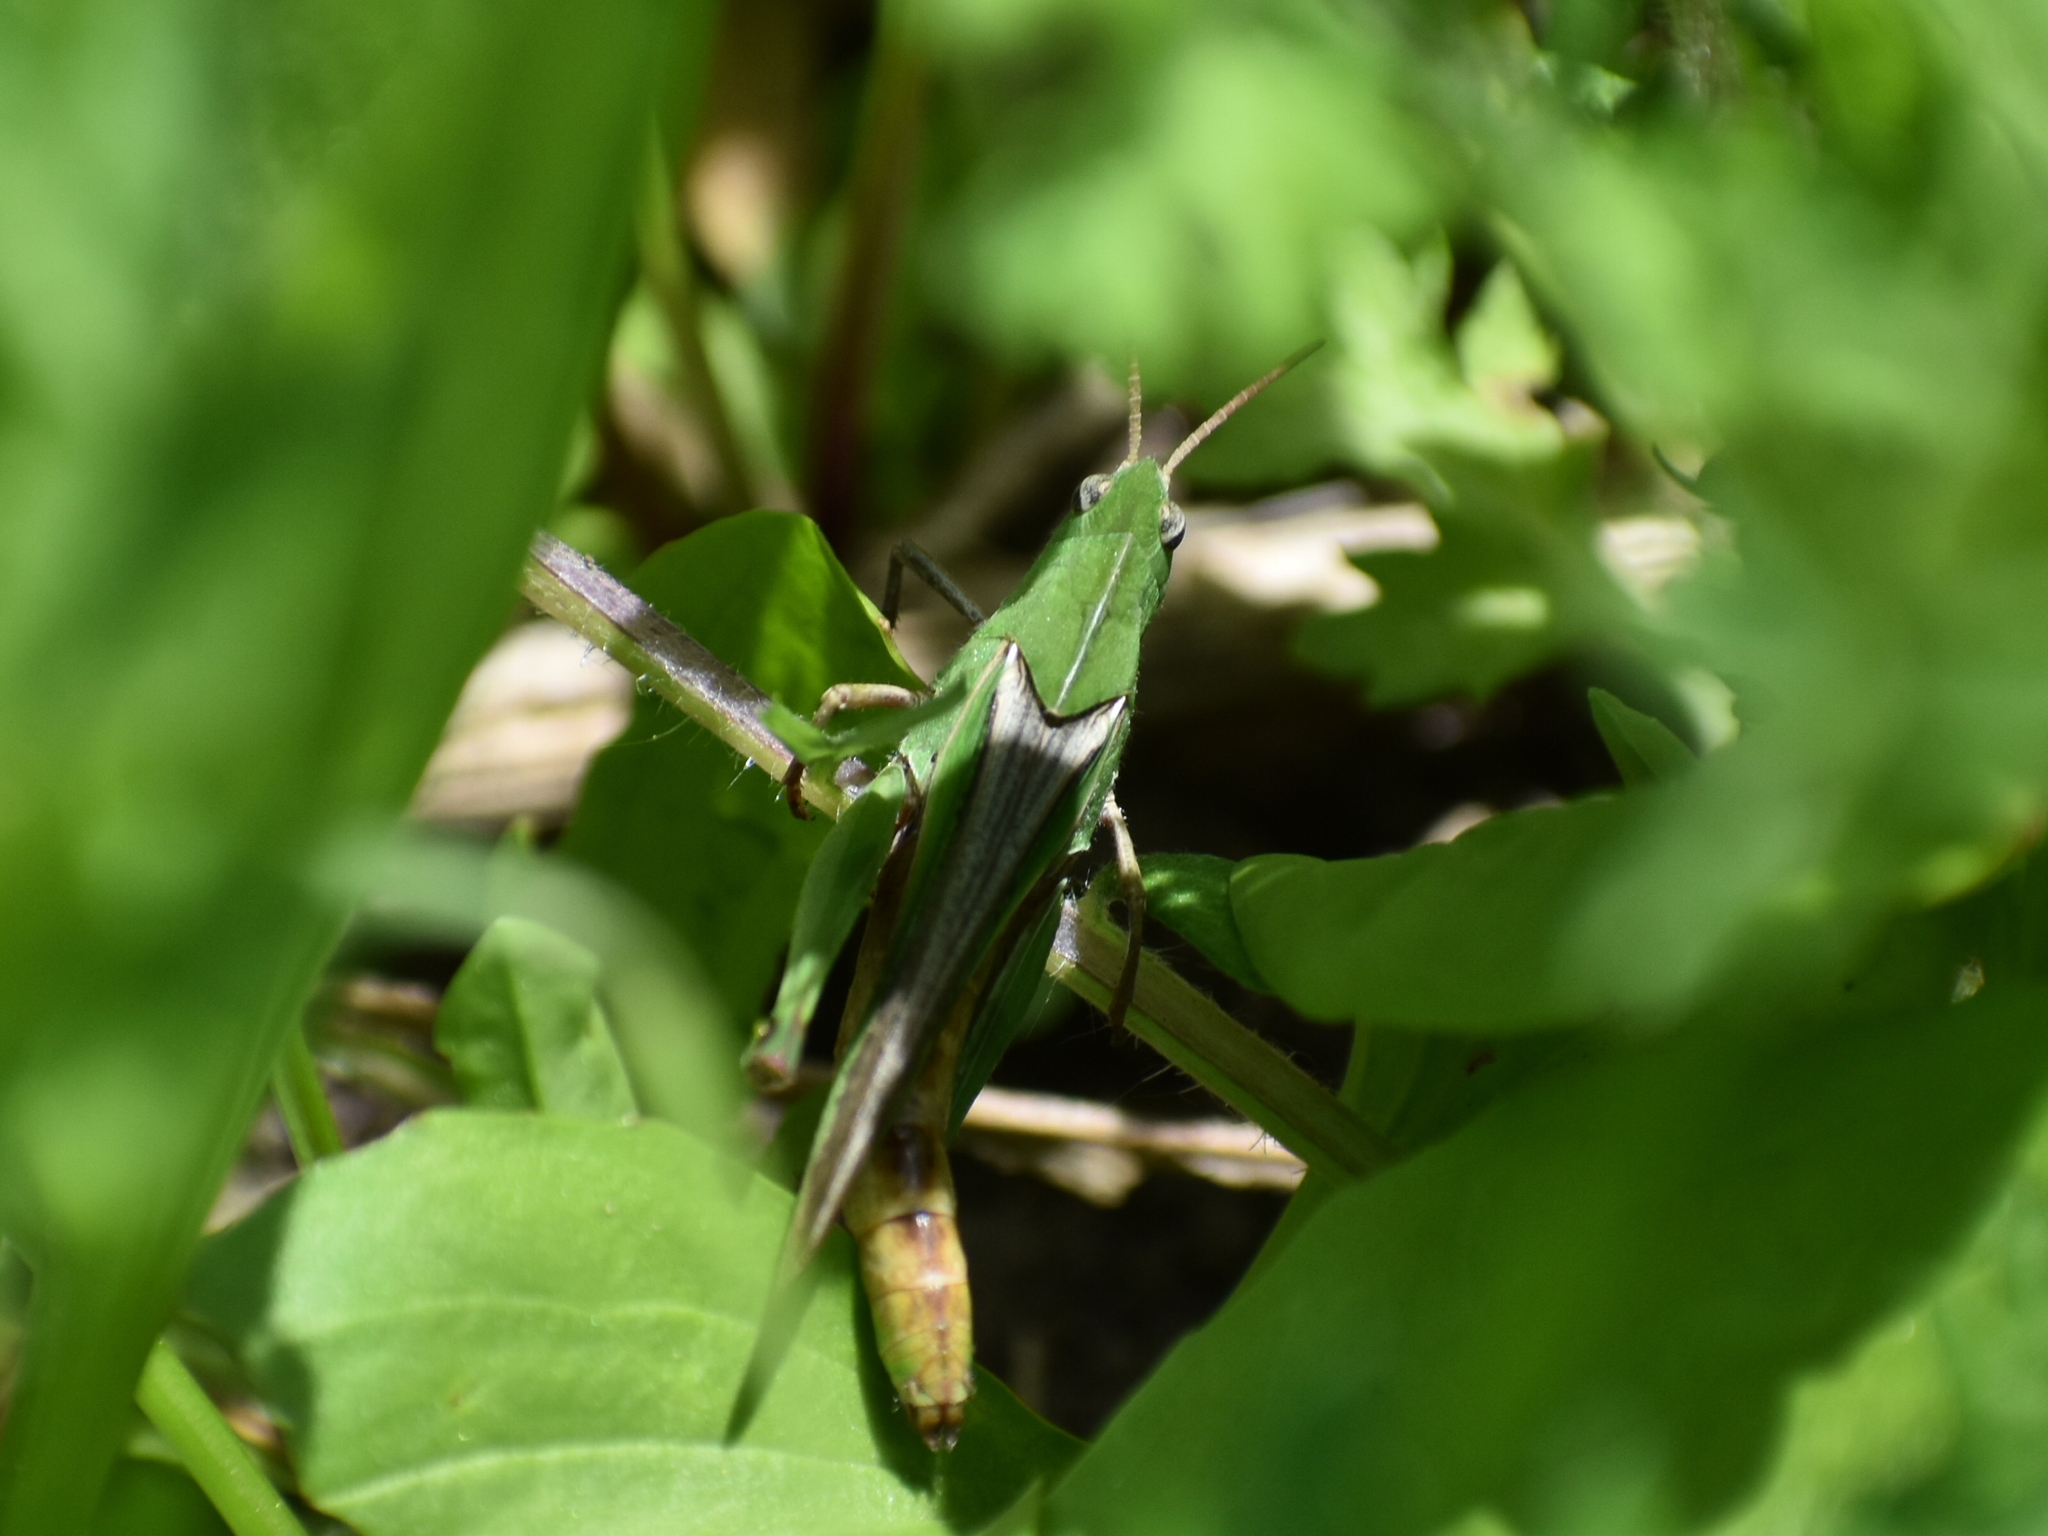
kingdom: Animalia
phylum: Arthropoda
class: Insecta
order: Orthoptera
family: Acrididae
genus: Chortophaga
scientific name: Chortophaga viridifasciata
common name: Green-striped grasshopper
